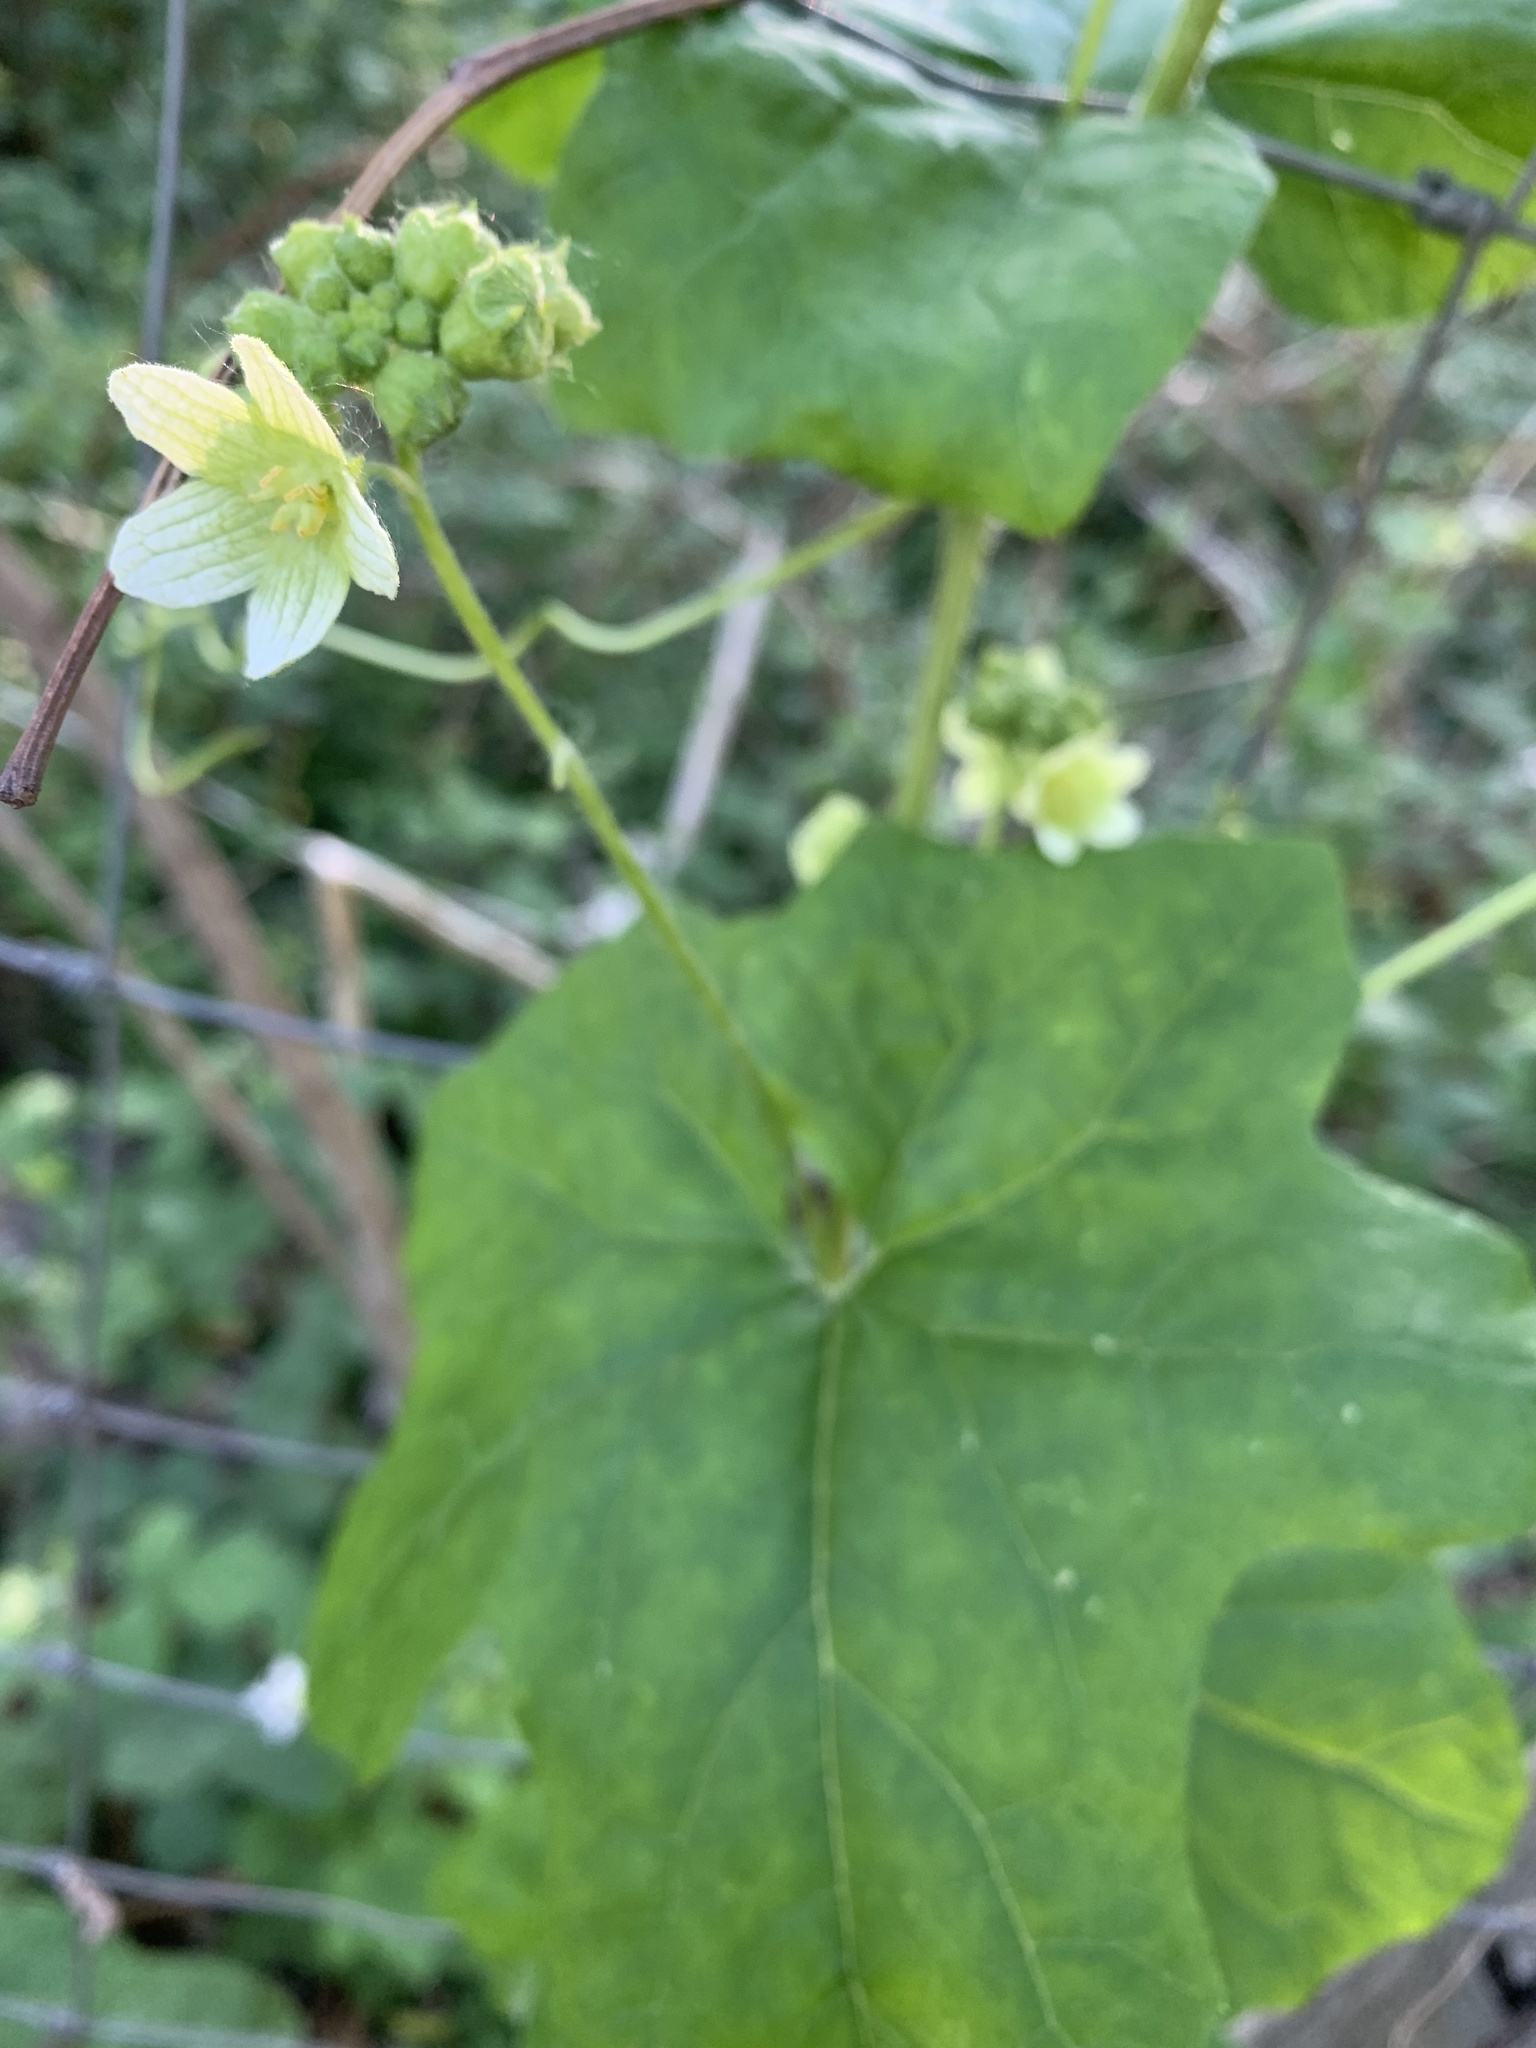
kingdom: Plantae
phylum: Tracheophyta
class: Magnoliopsida
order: Cucurbitales
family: Cucurbitaceae
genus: Bryonia
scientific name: Bryonia dioica
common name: White bryony
